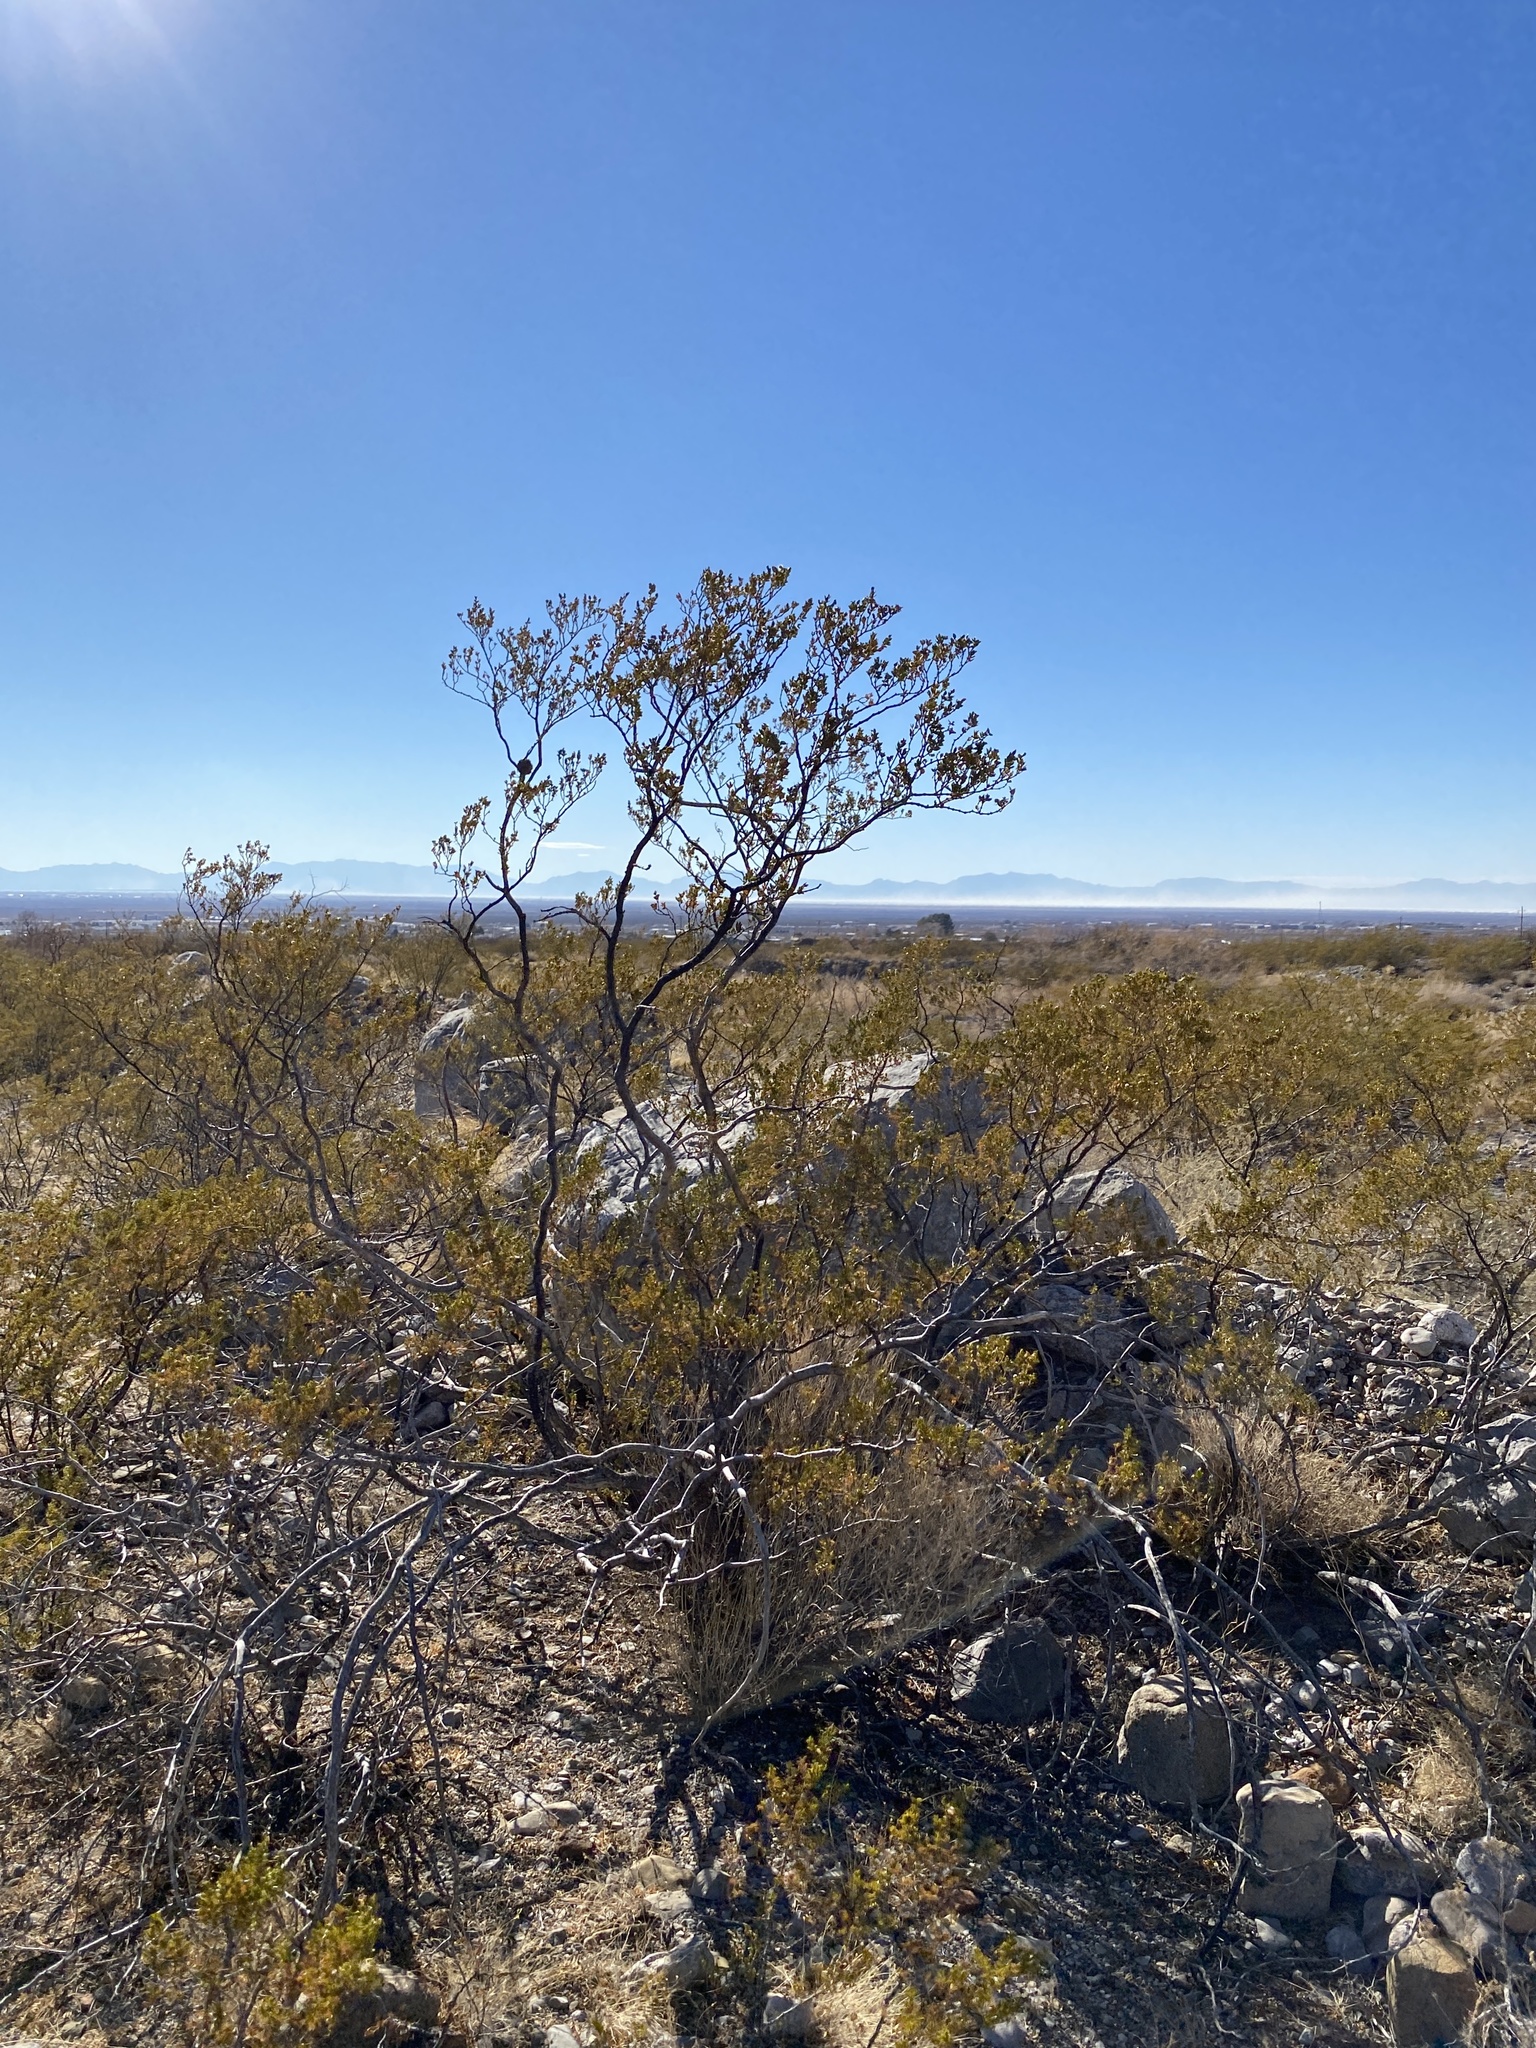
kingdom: Plantae
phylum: Tracheophyta
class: Magnoliopsida
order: Zygophyllales
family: Zygophyllaceae
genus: Larrea
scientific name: Larrea tridentata
